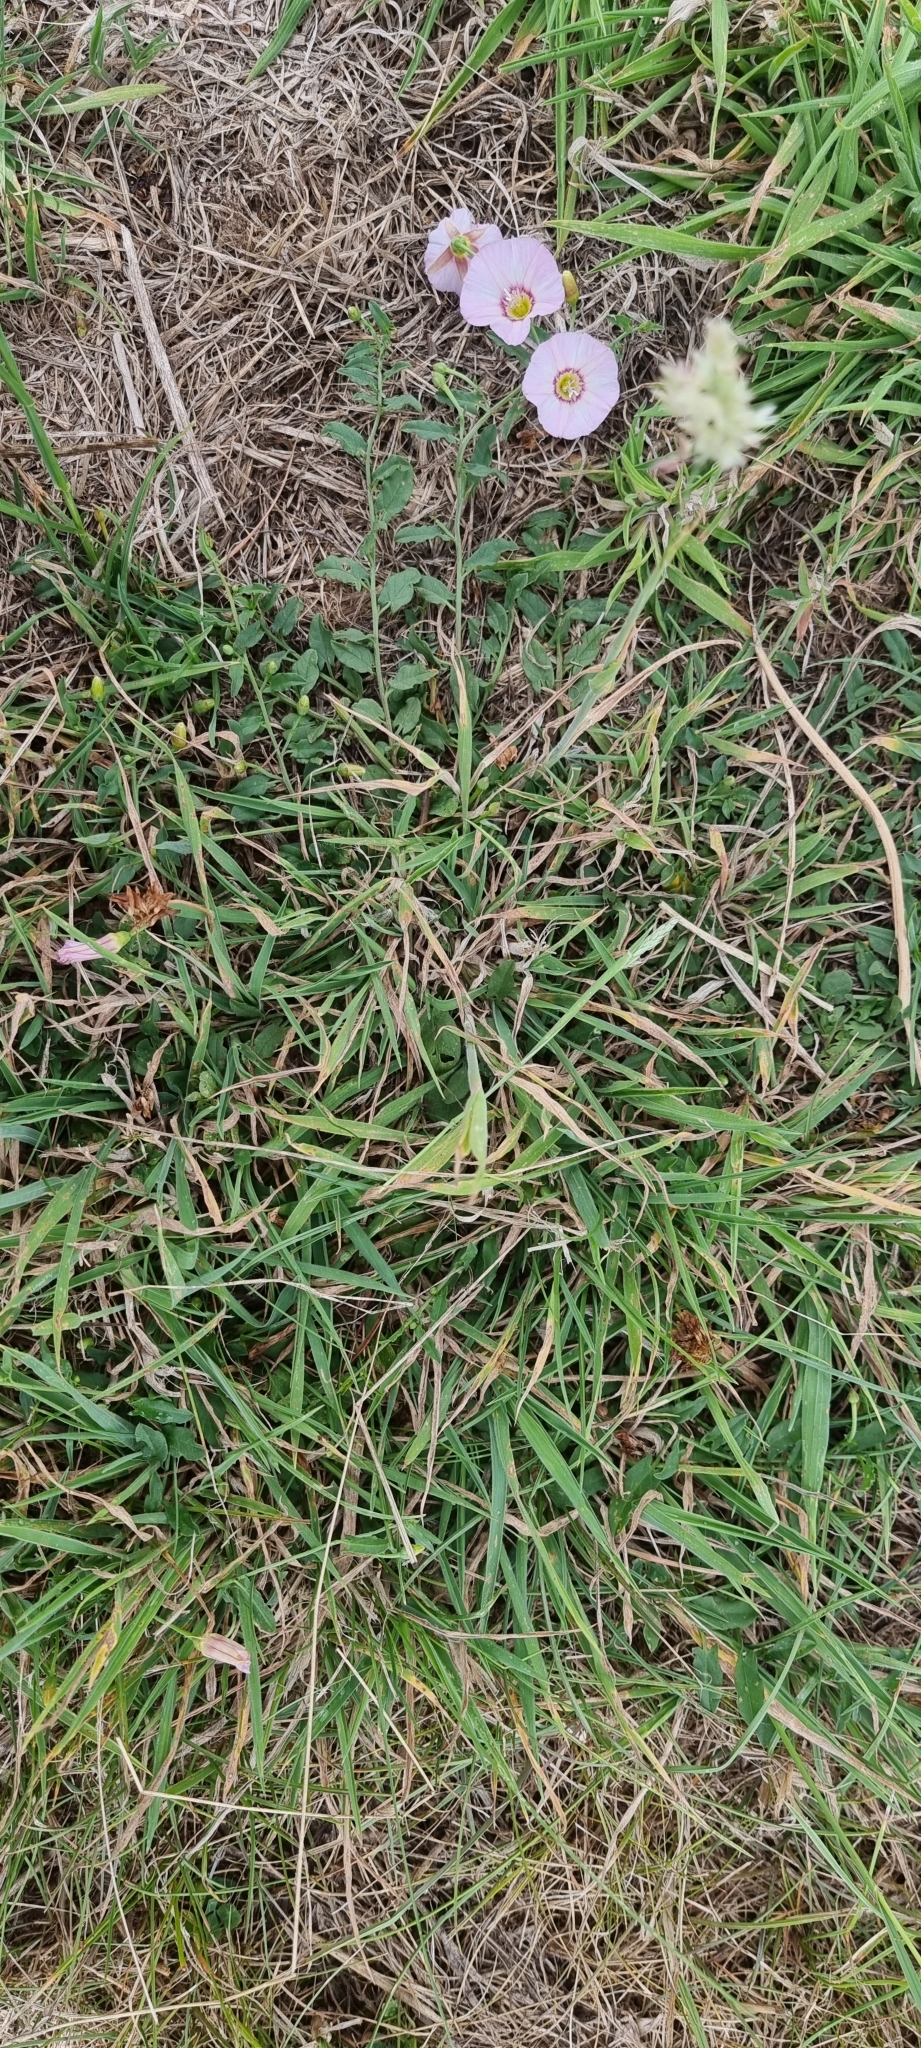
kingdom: Plantae
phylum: Tracheophyta
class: Magnoliopsida
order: Solanales
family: Convolvulaceae
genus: Convolvulus
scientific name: Convolvulus arvensis
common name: Field bindweed
